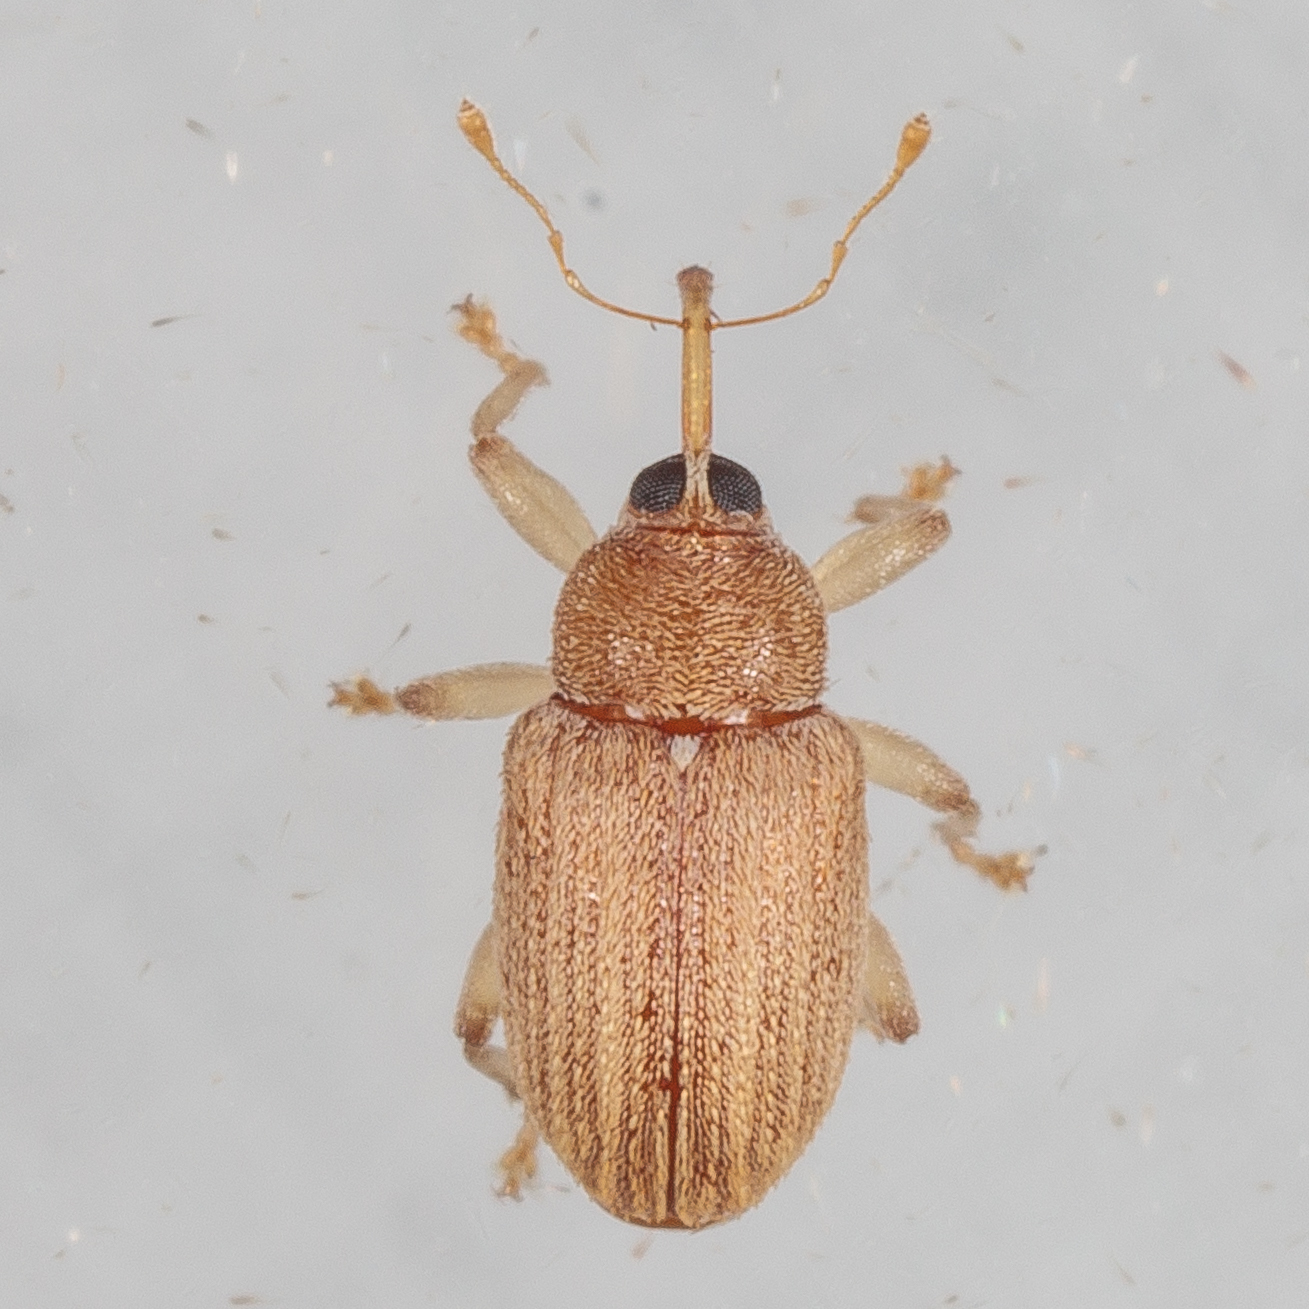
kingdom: Animalia
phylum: Arthropoda
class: Insecta
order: Coleoptera
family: Curculionidae
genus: Lignyodes
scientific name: Lignyodes helvolus
